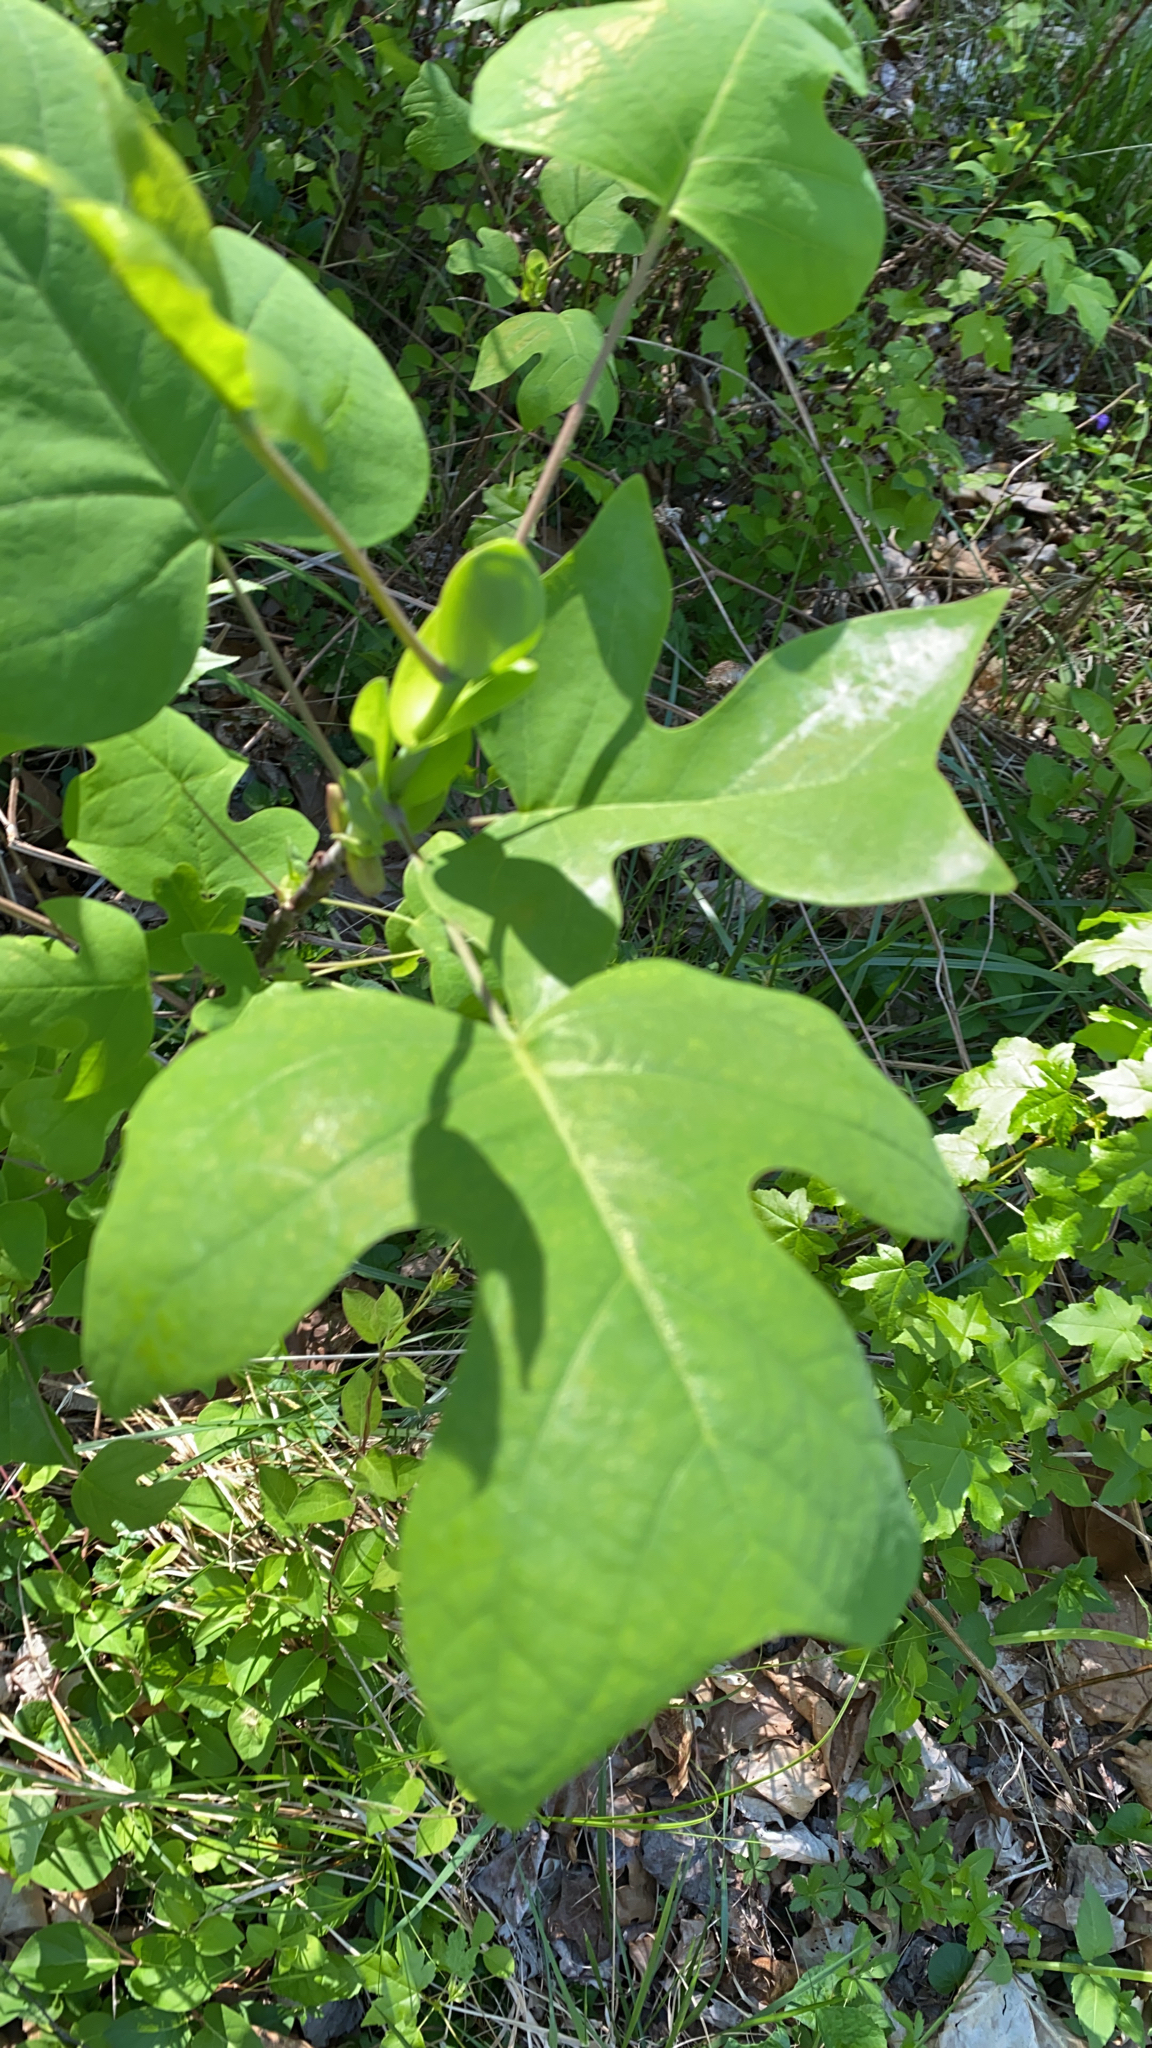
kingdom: Plantae
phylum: Tracheophyta
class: Magnoliopsida
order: Magnoliales
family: Magnoliaceae
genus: Liriodendron
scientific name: Liriodendron tulipifera
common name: Tulip tree
